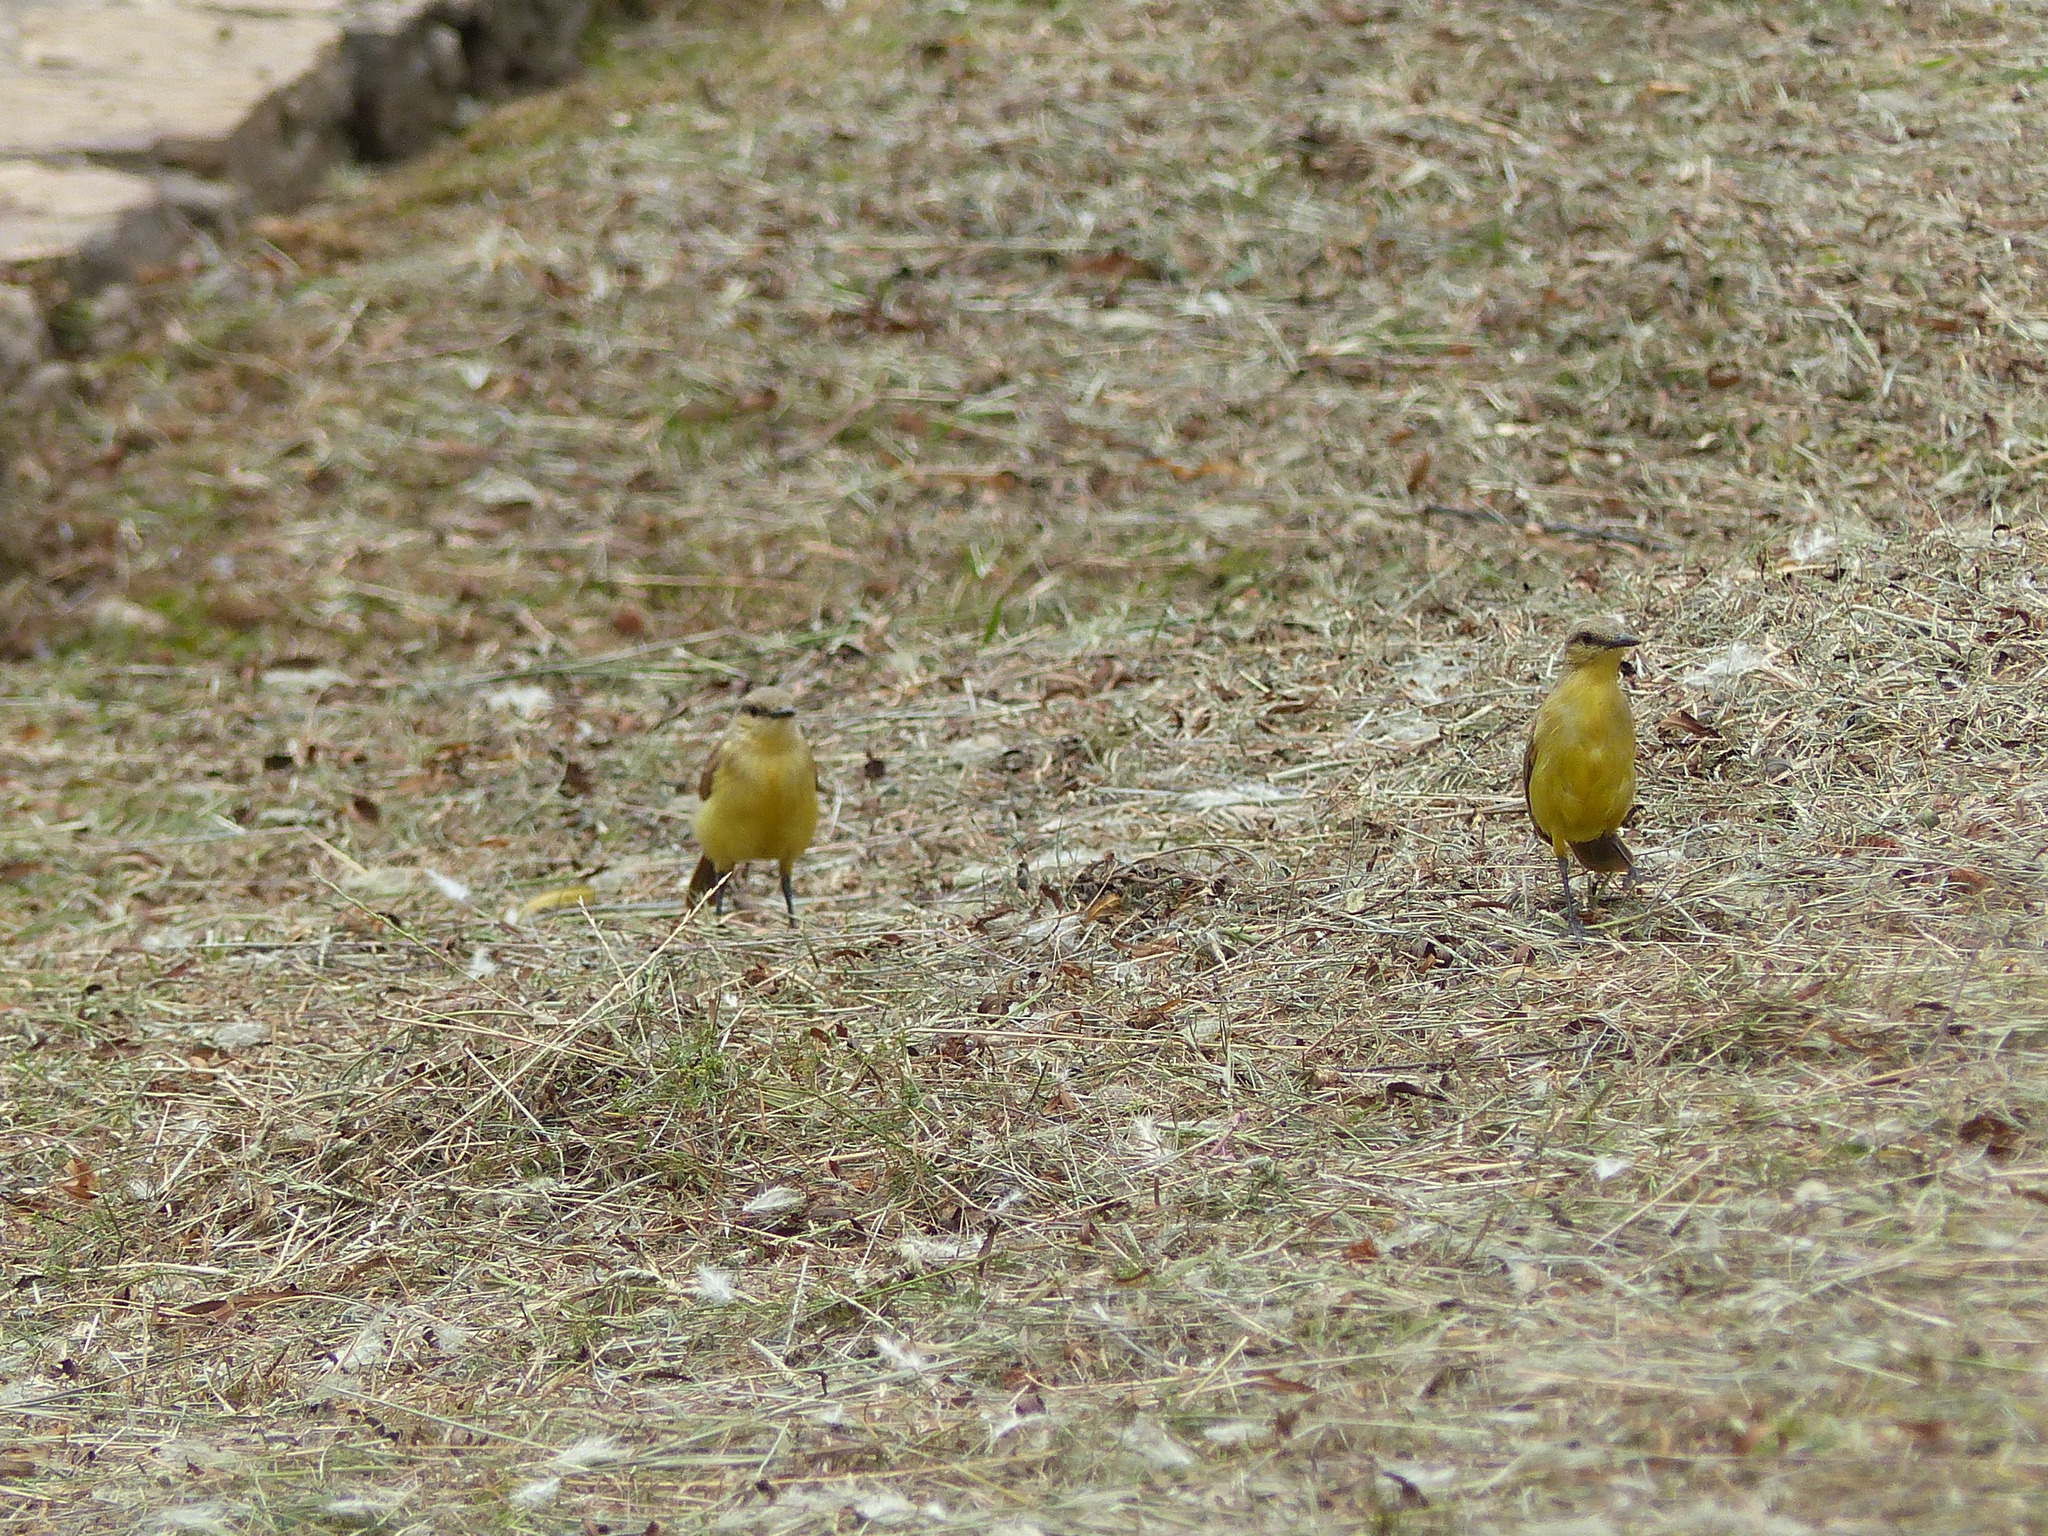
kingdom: Animalia
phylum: Chordata
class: Aves
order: Passeriformes
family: Tyrannidae
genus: Machetornis
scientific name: Machetornis rixosa
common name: Cattle tyrant
